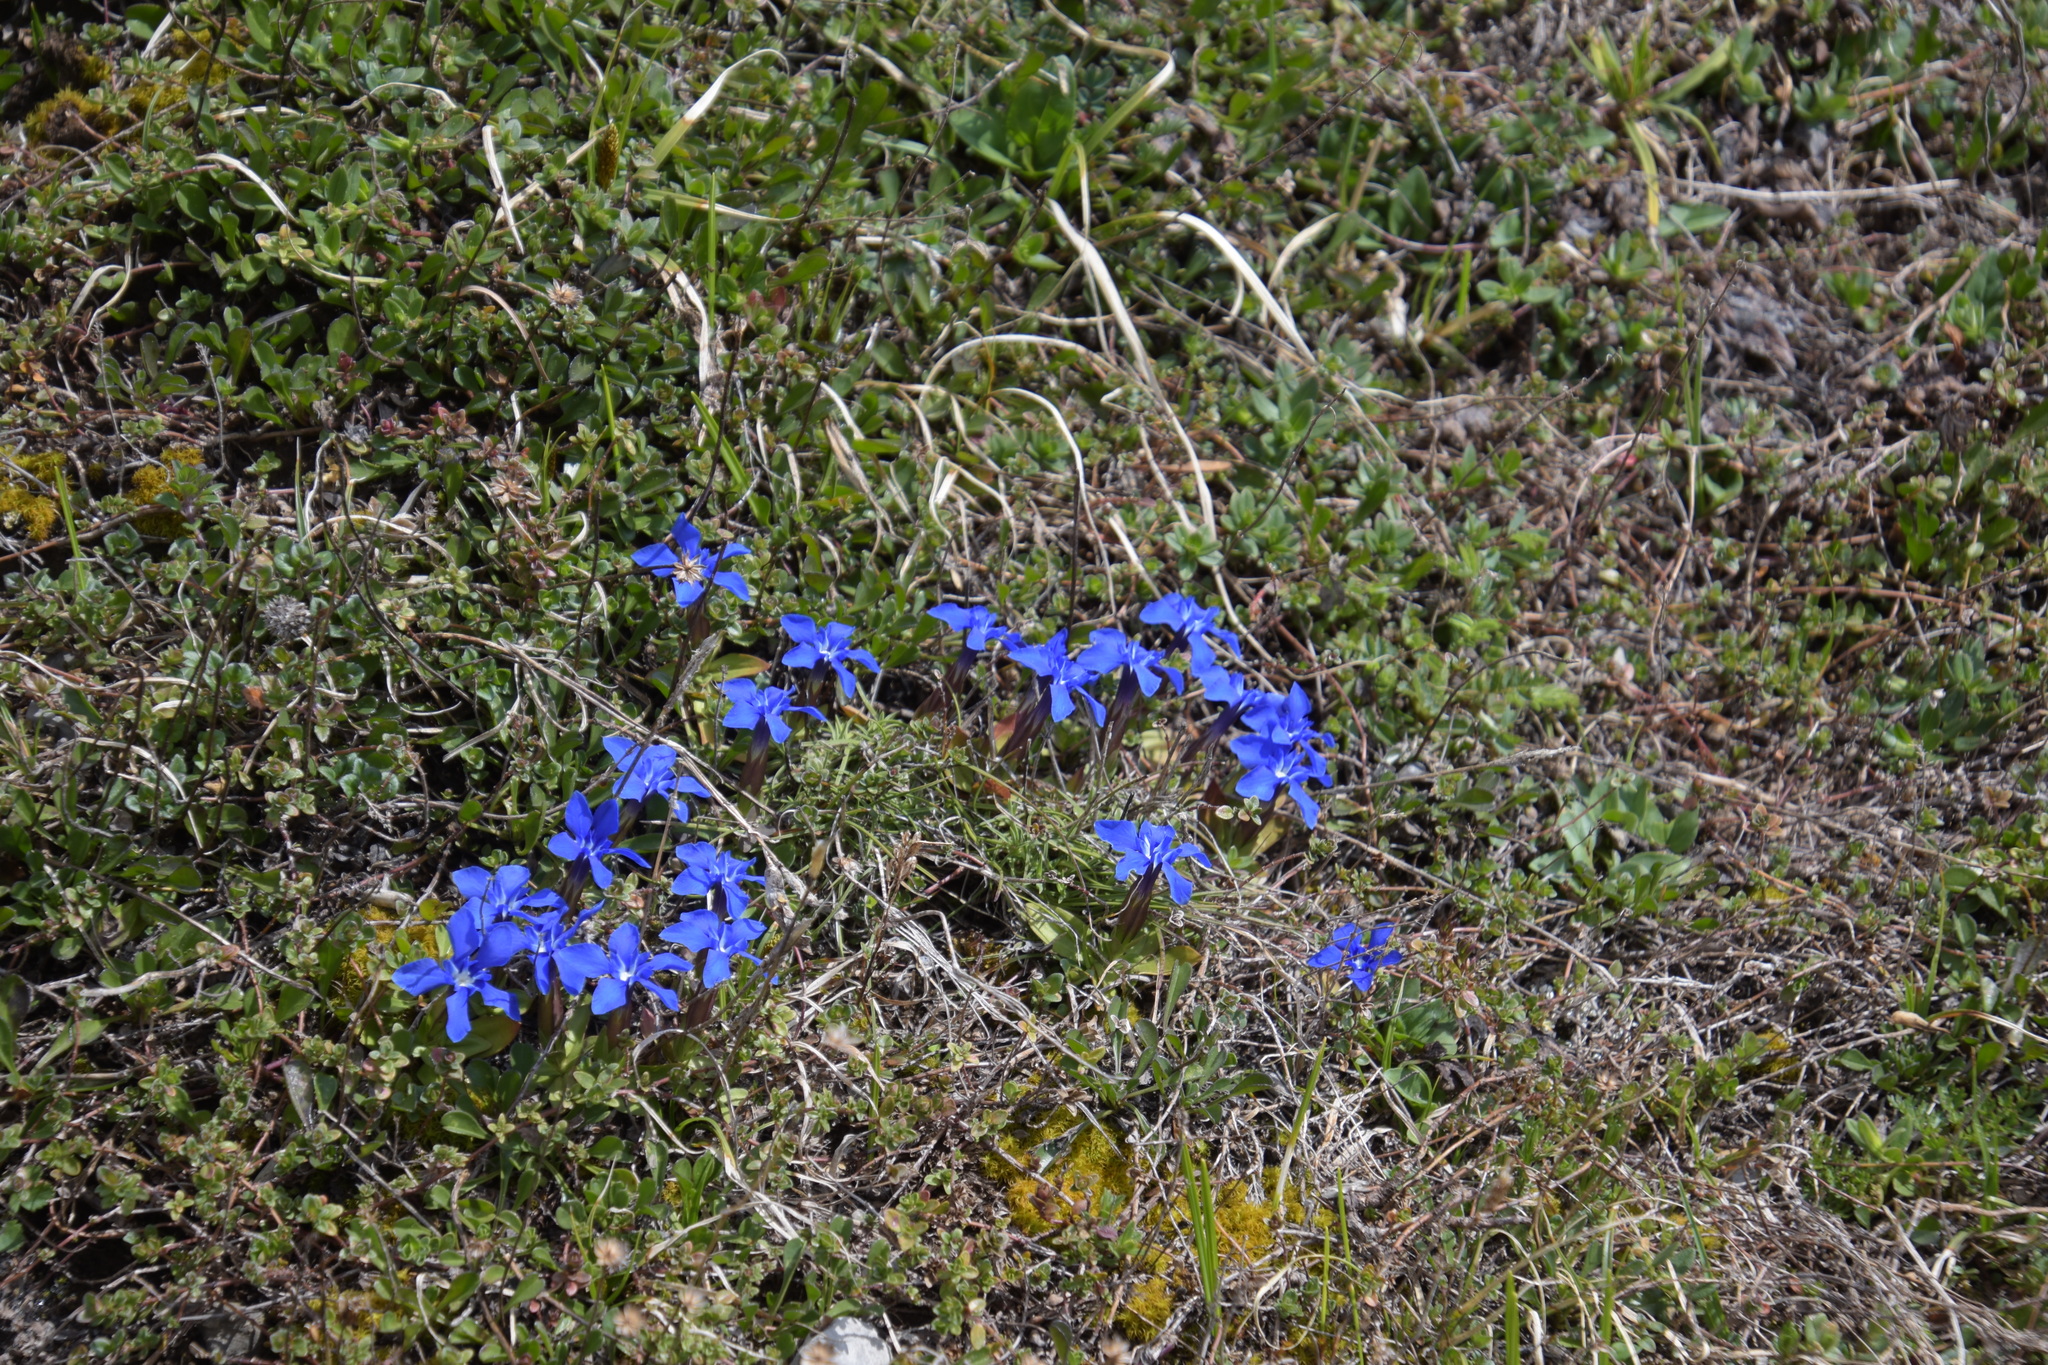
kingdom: Plantae
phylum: Tracheophyta
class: Magnoliopsida
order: Gentianales
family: Gentianaceae
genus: Gentiana
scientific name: Gentiana verna
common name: Spring gentian
